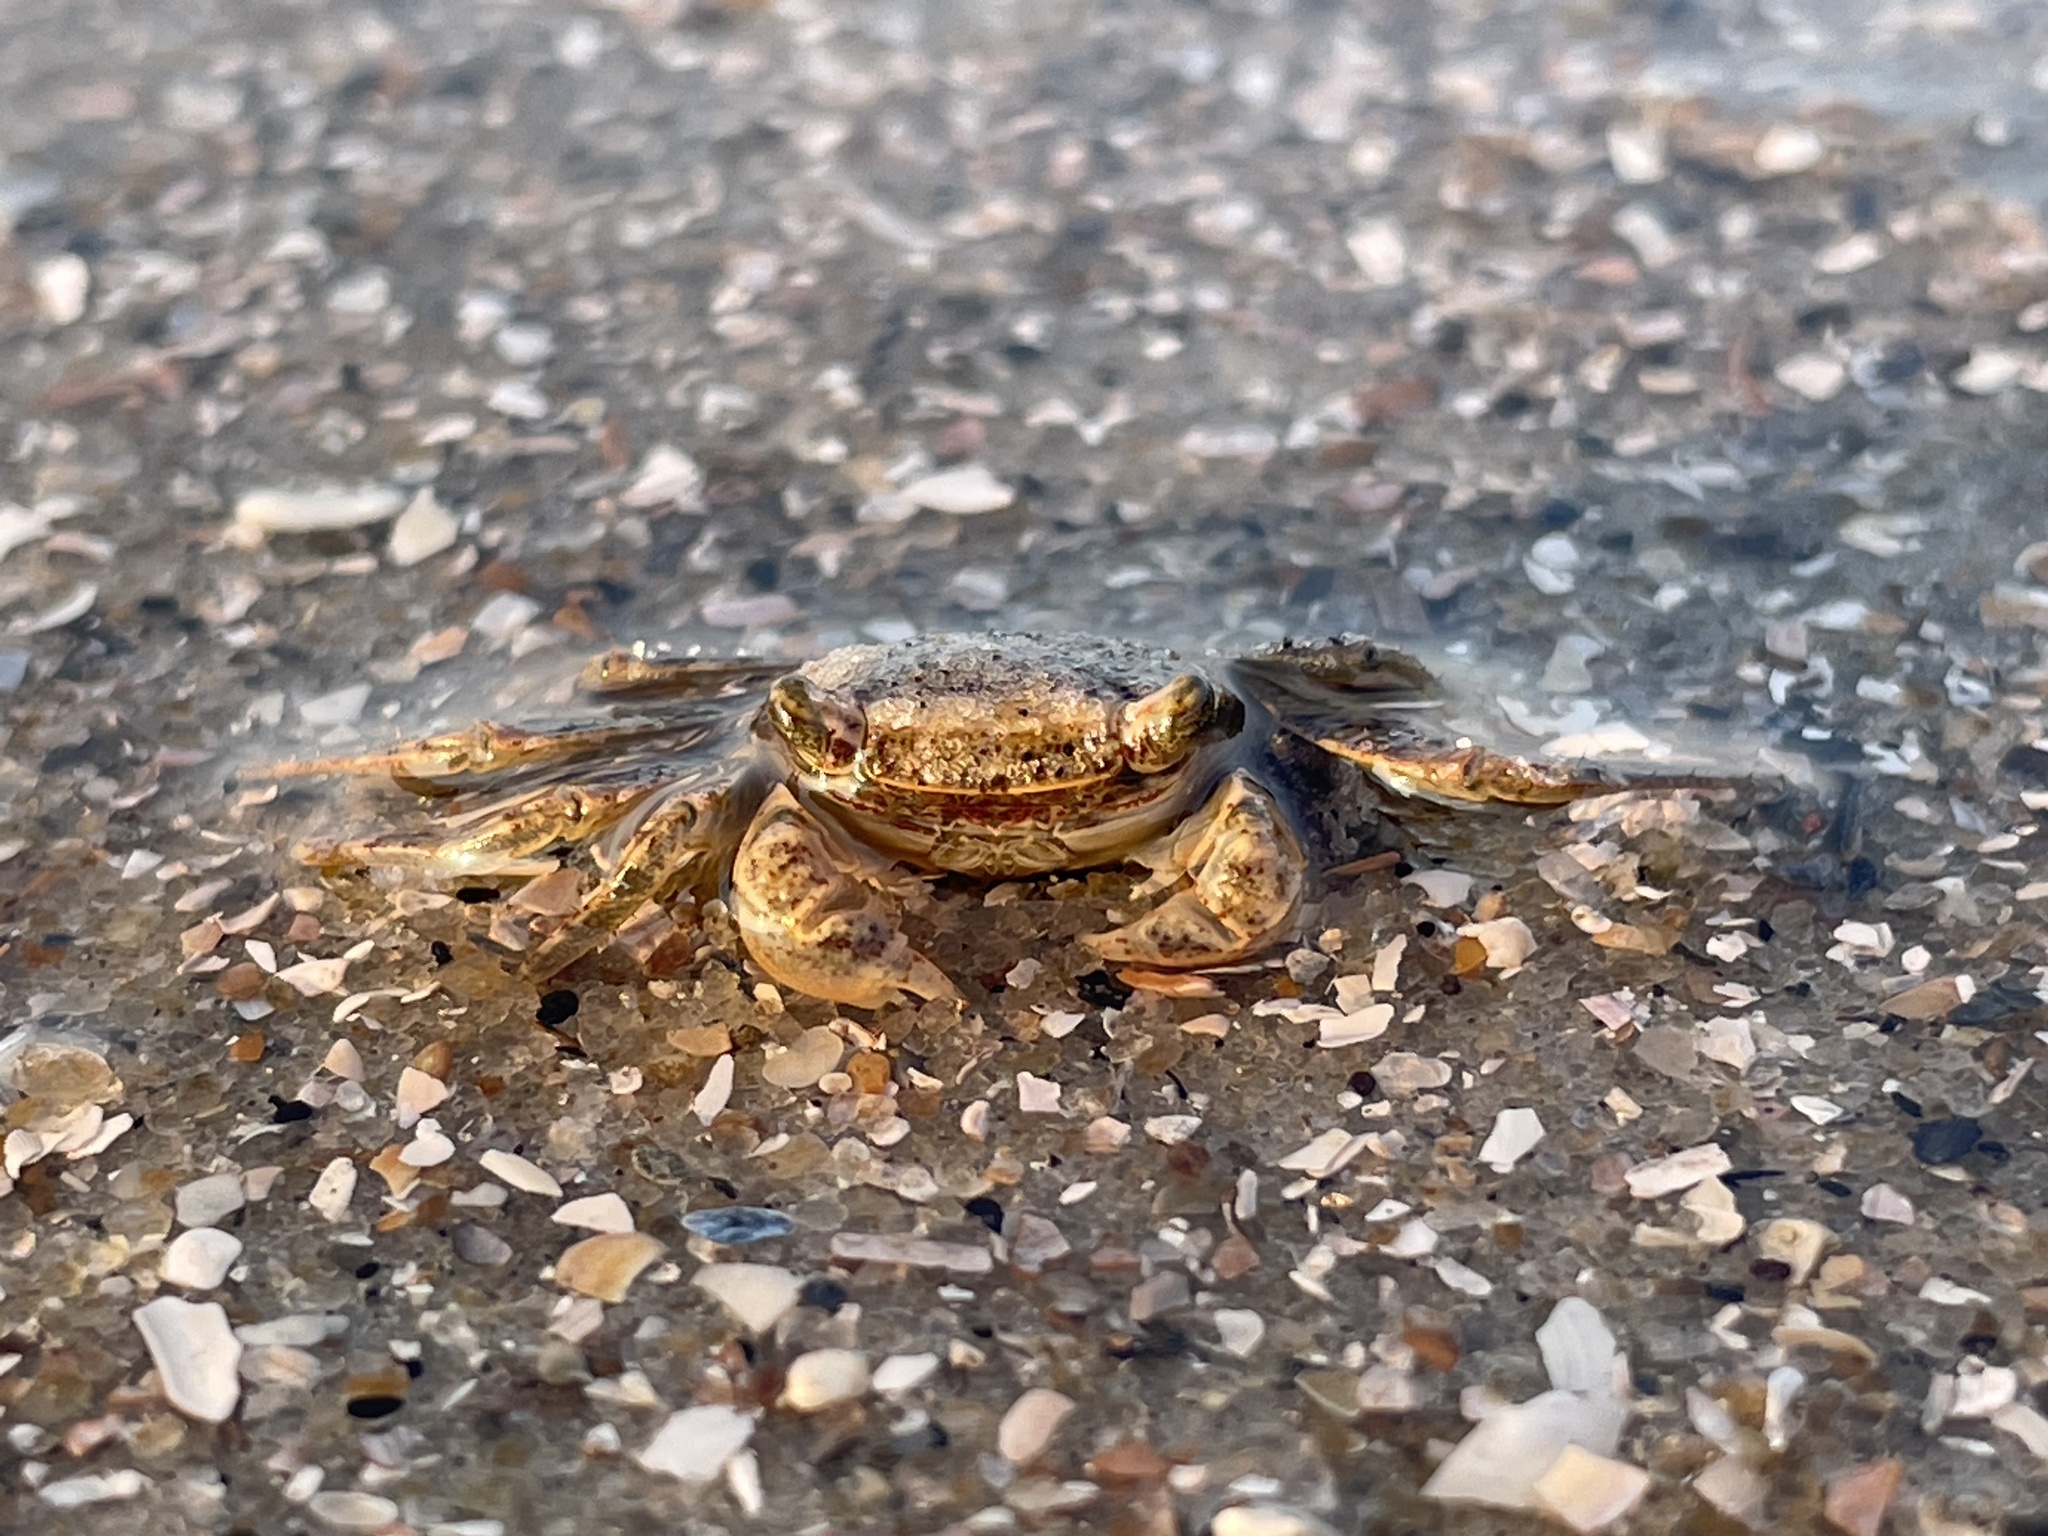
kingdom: Animalia
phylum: Arthropoda
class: Malacostraca
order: Decapoda
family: Sesarmidae
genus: Armases
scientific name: Armases cinereum
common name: Squareback marsh crab
